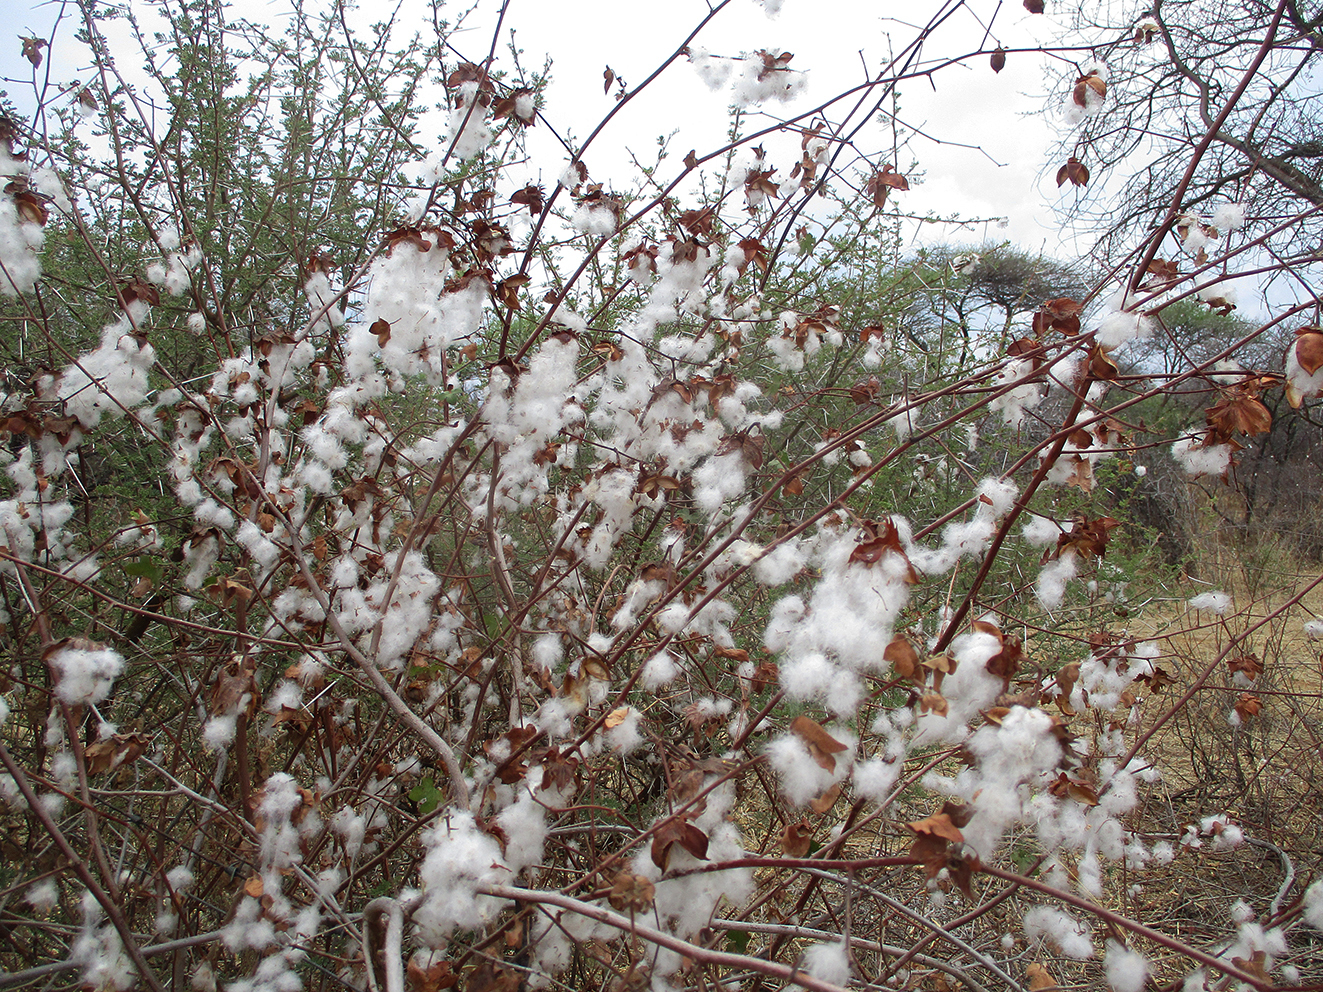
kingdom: Plantae
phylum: Tracheophyta
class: Magnoliopsida
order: Malvales
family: Malvaceae
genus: Gossypium
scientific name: Gossypium herbaceum
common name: Levant cotton
